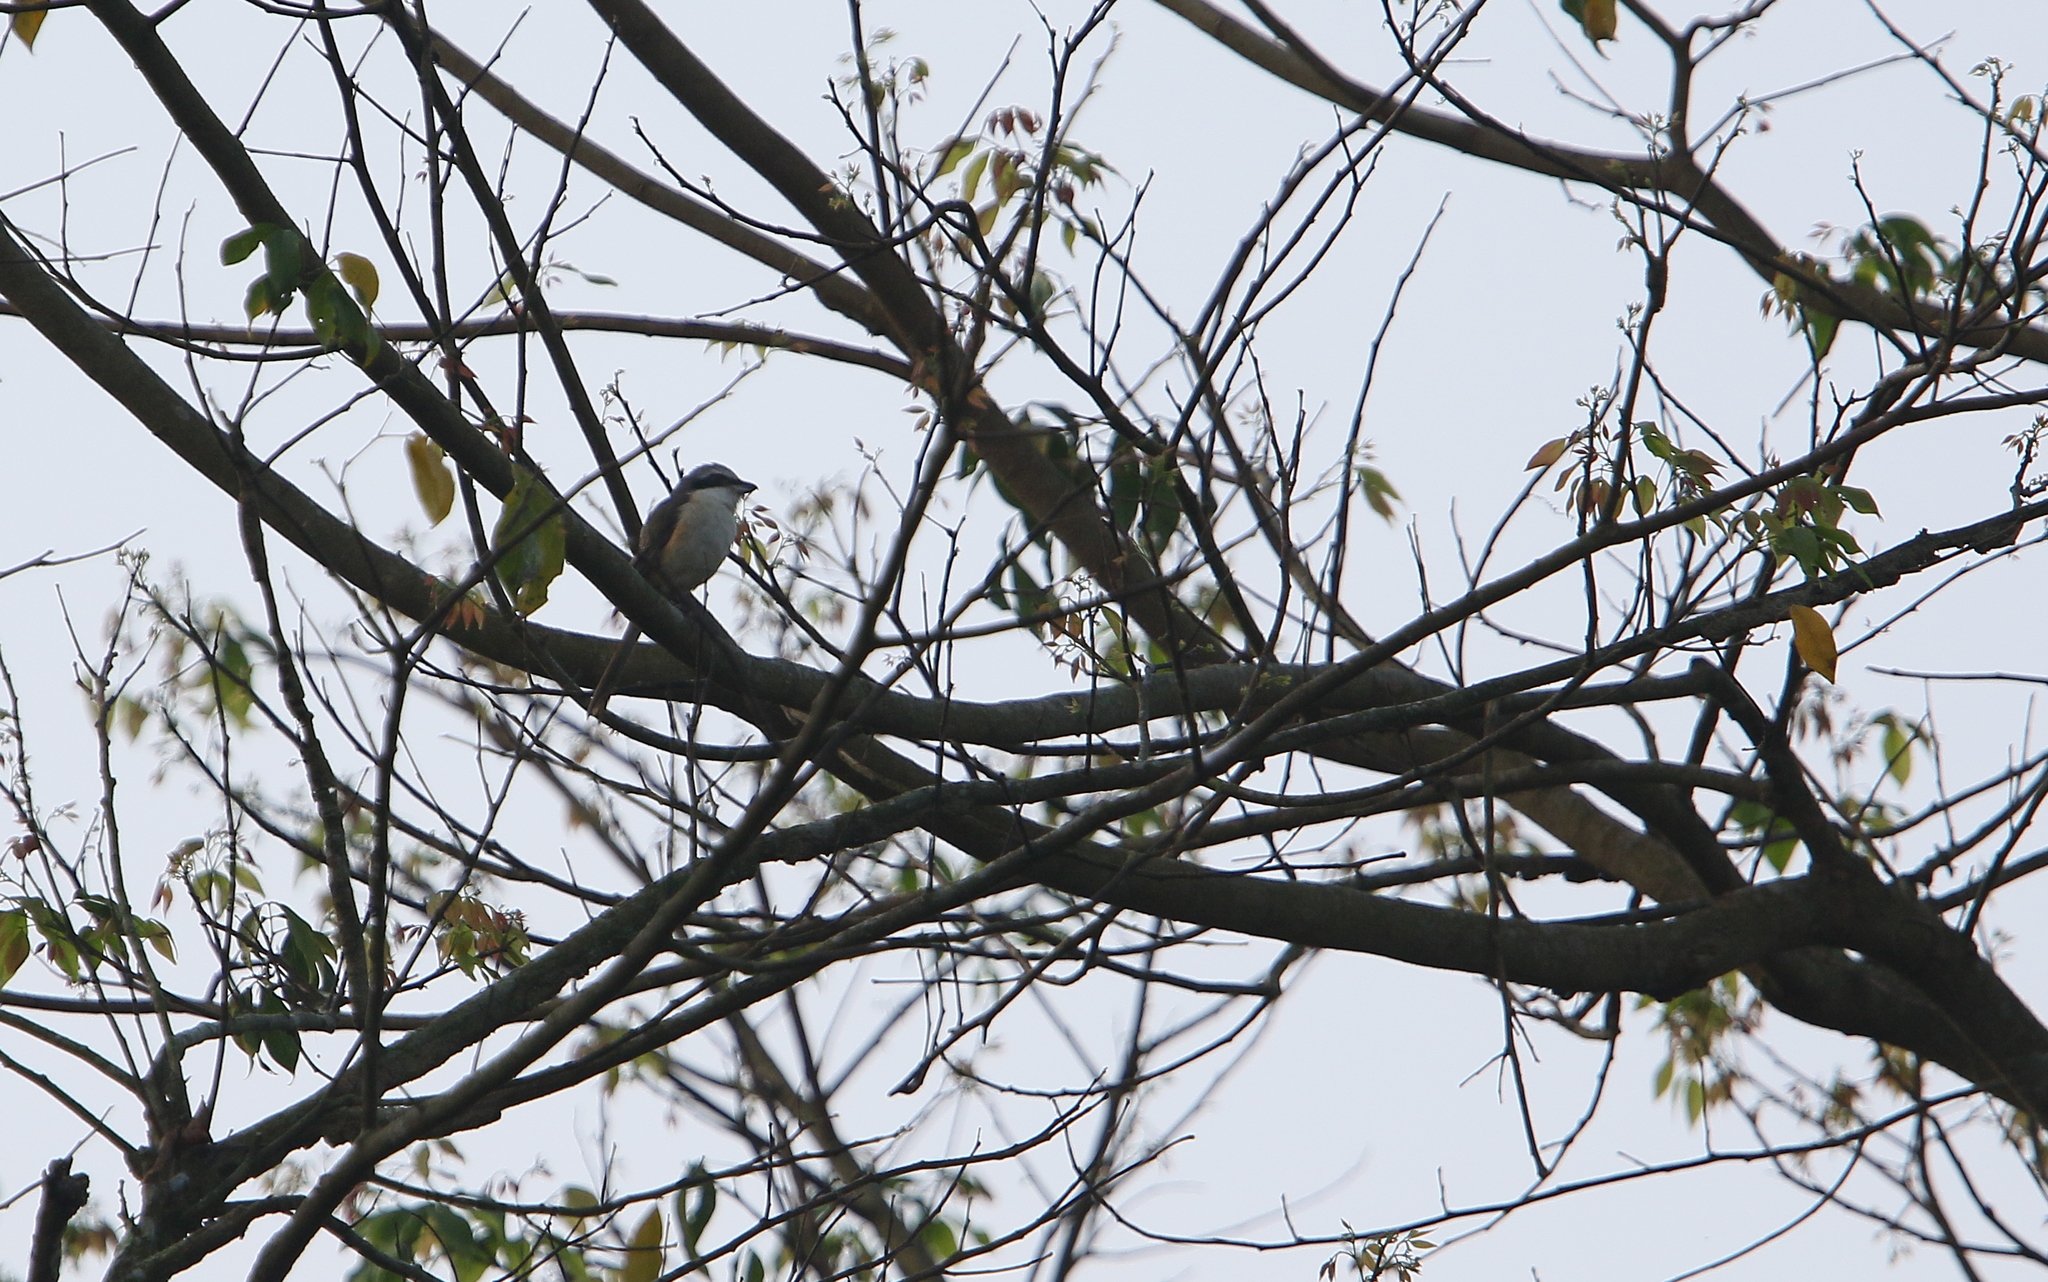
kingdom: Animalia
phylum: Chordata
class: Aves
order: Passeriformes
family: Laniidae
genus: Lanius
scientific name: Lanius cristatus
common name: Brown shrike
